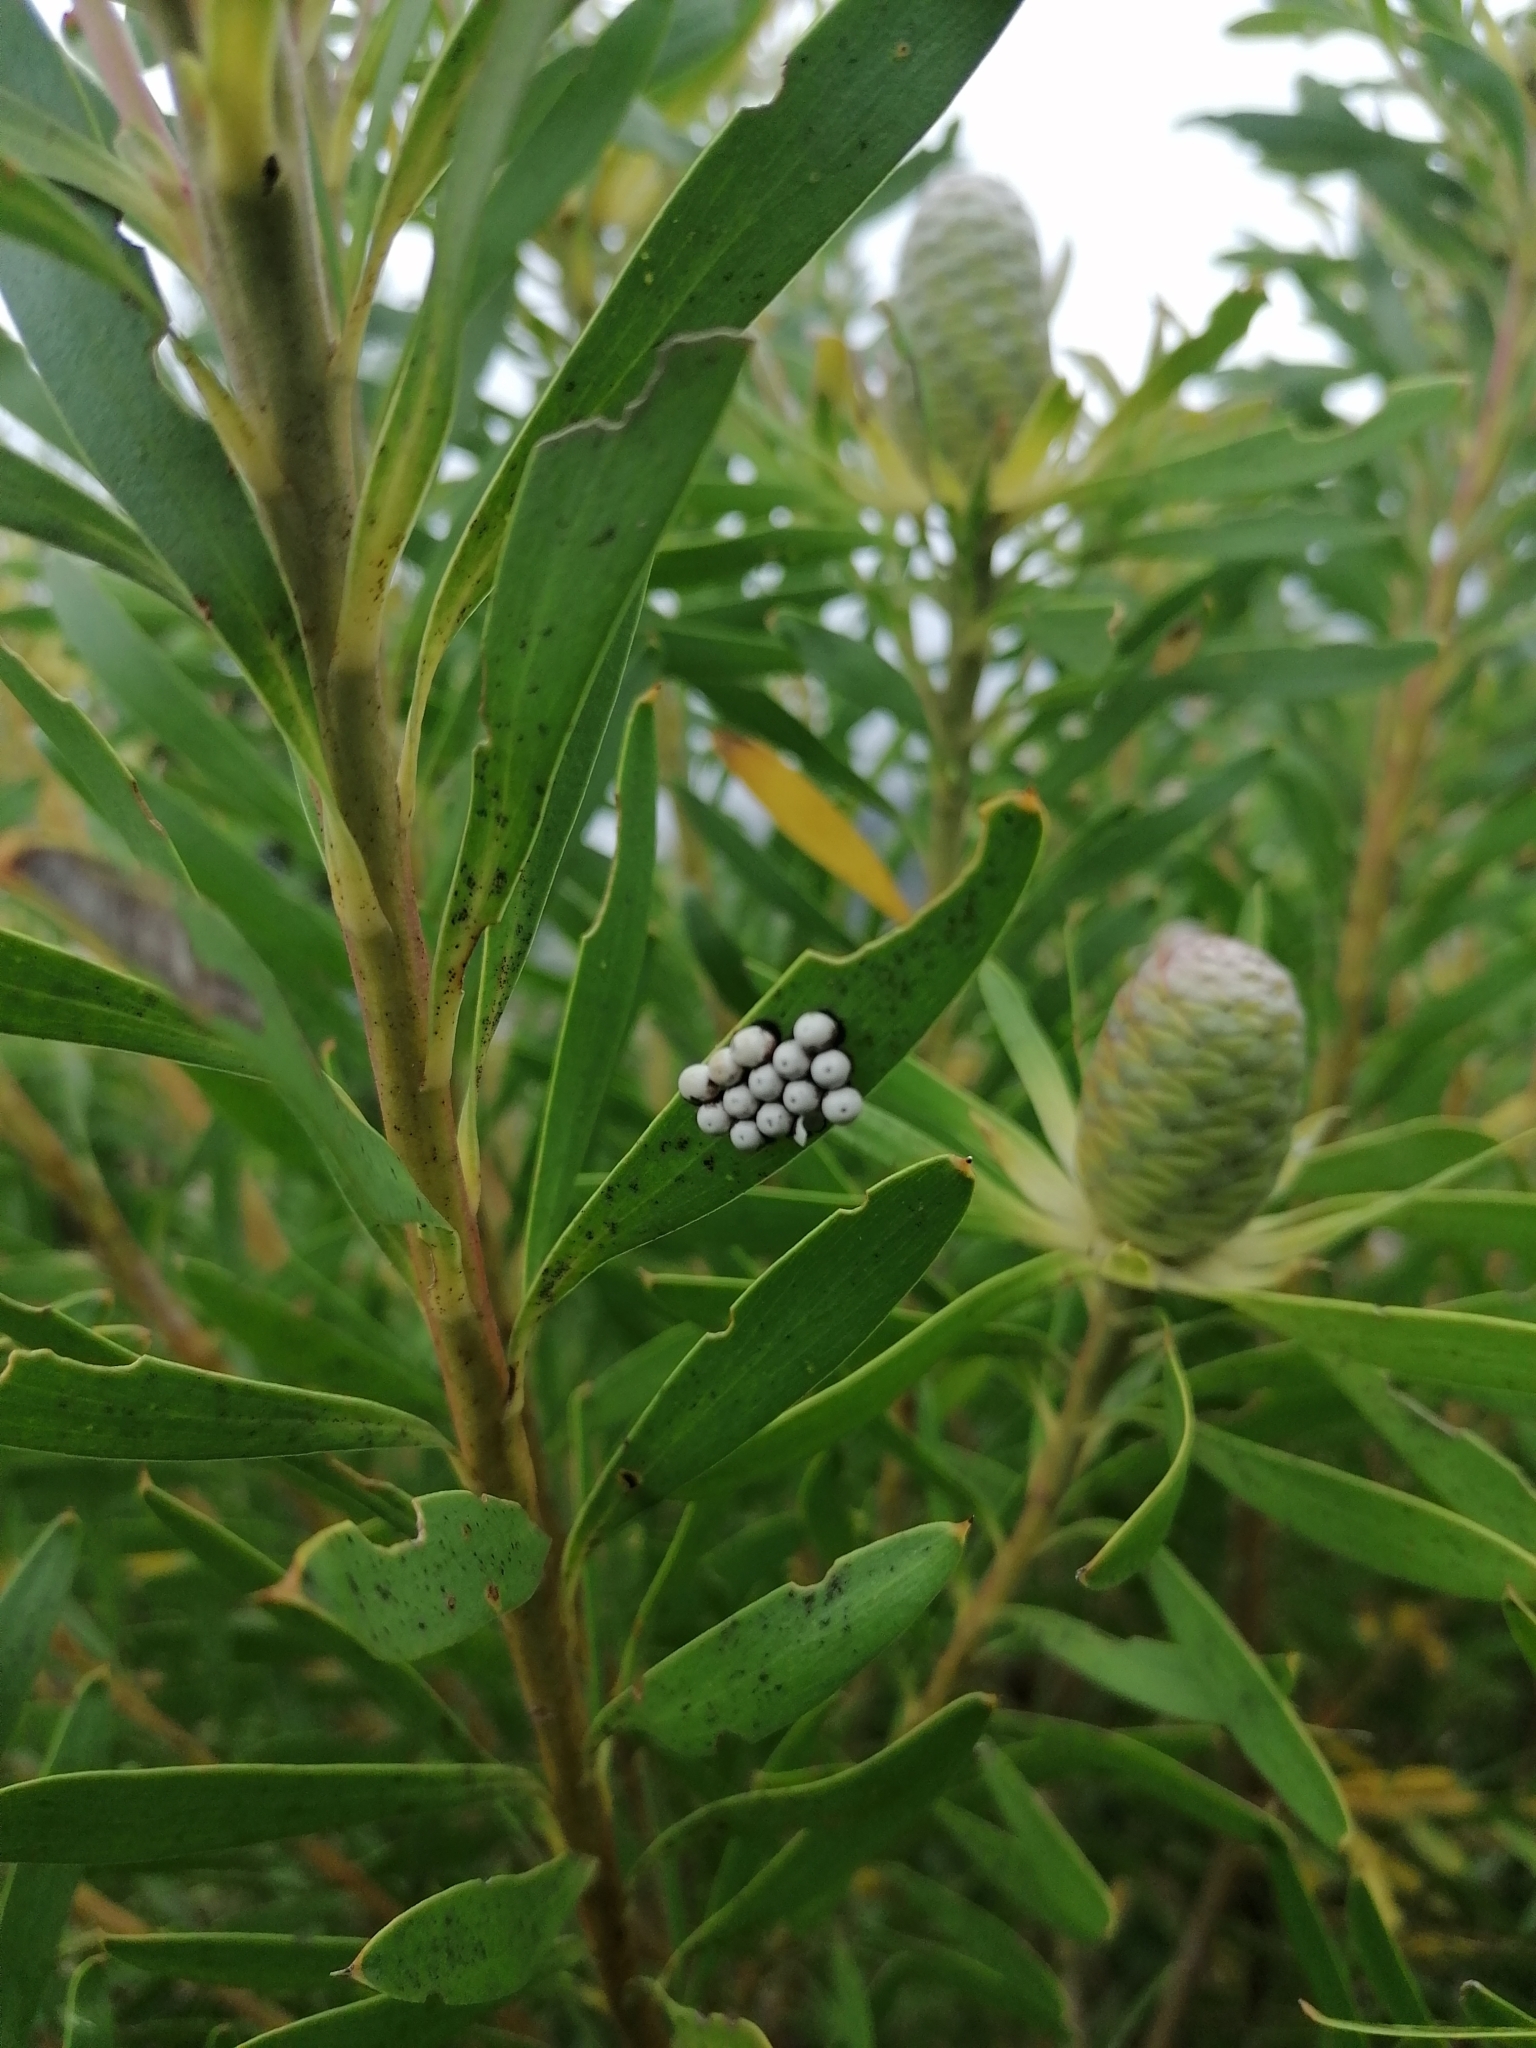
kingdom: Animalia
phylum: Arthropoda
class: Insecta
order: Lepidoptera
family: Saturniidae
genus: Nudaurelia
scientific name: Nudaurelia cytherea
